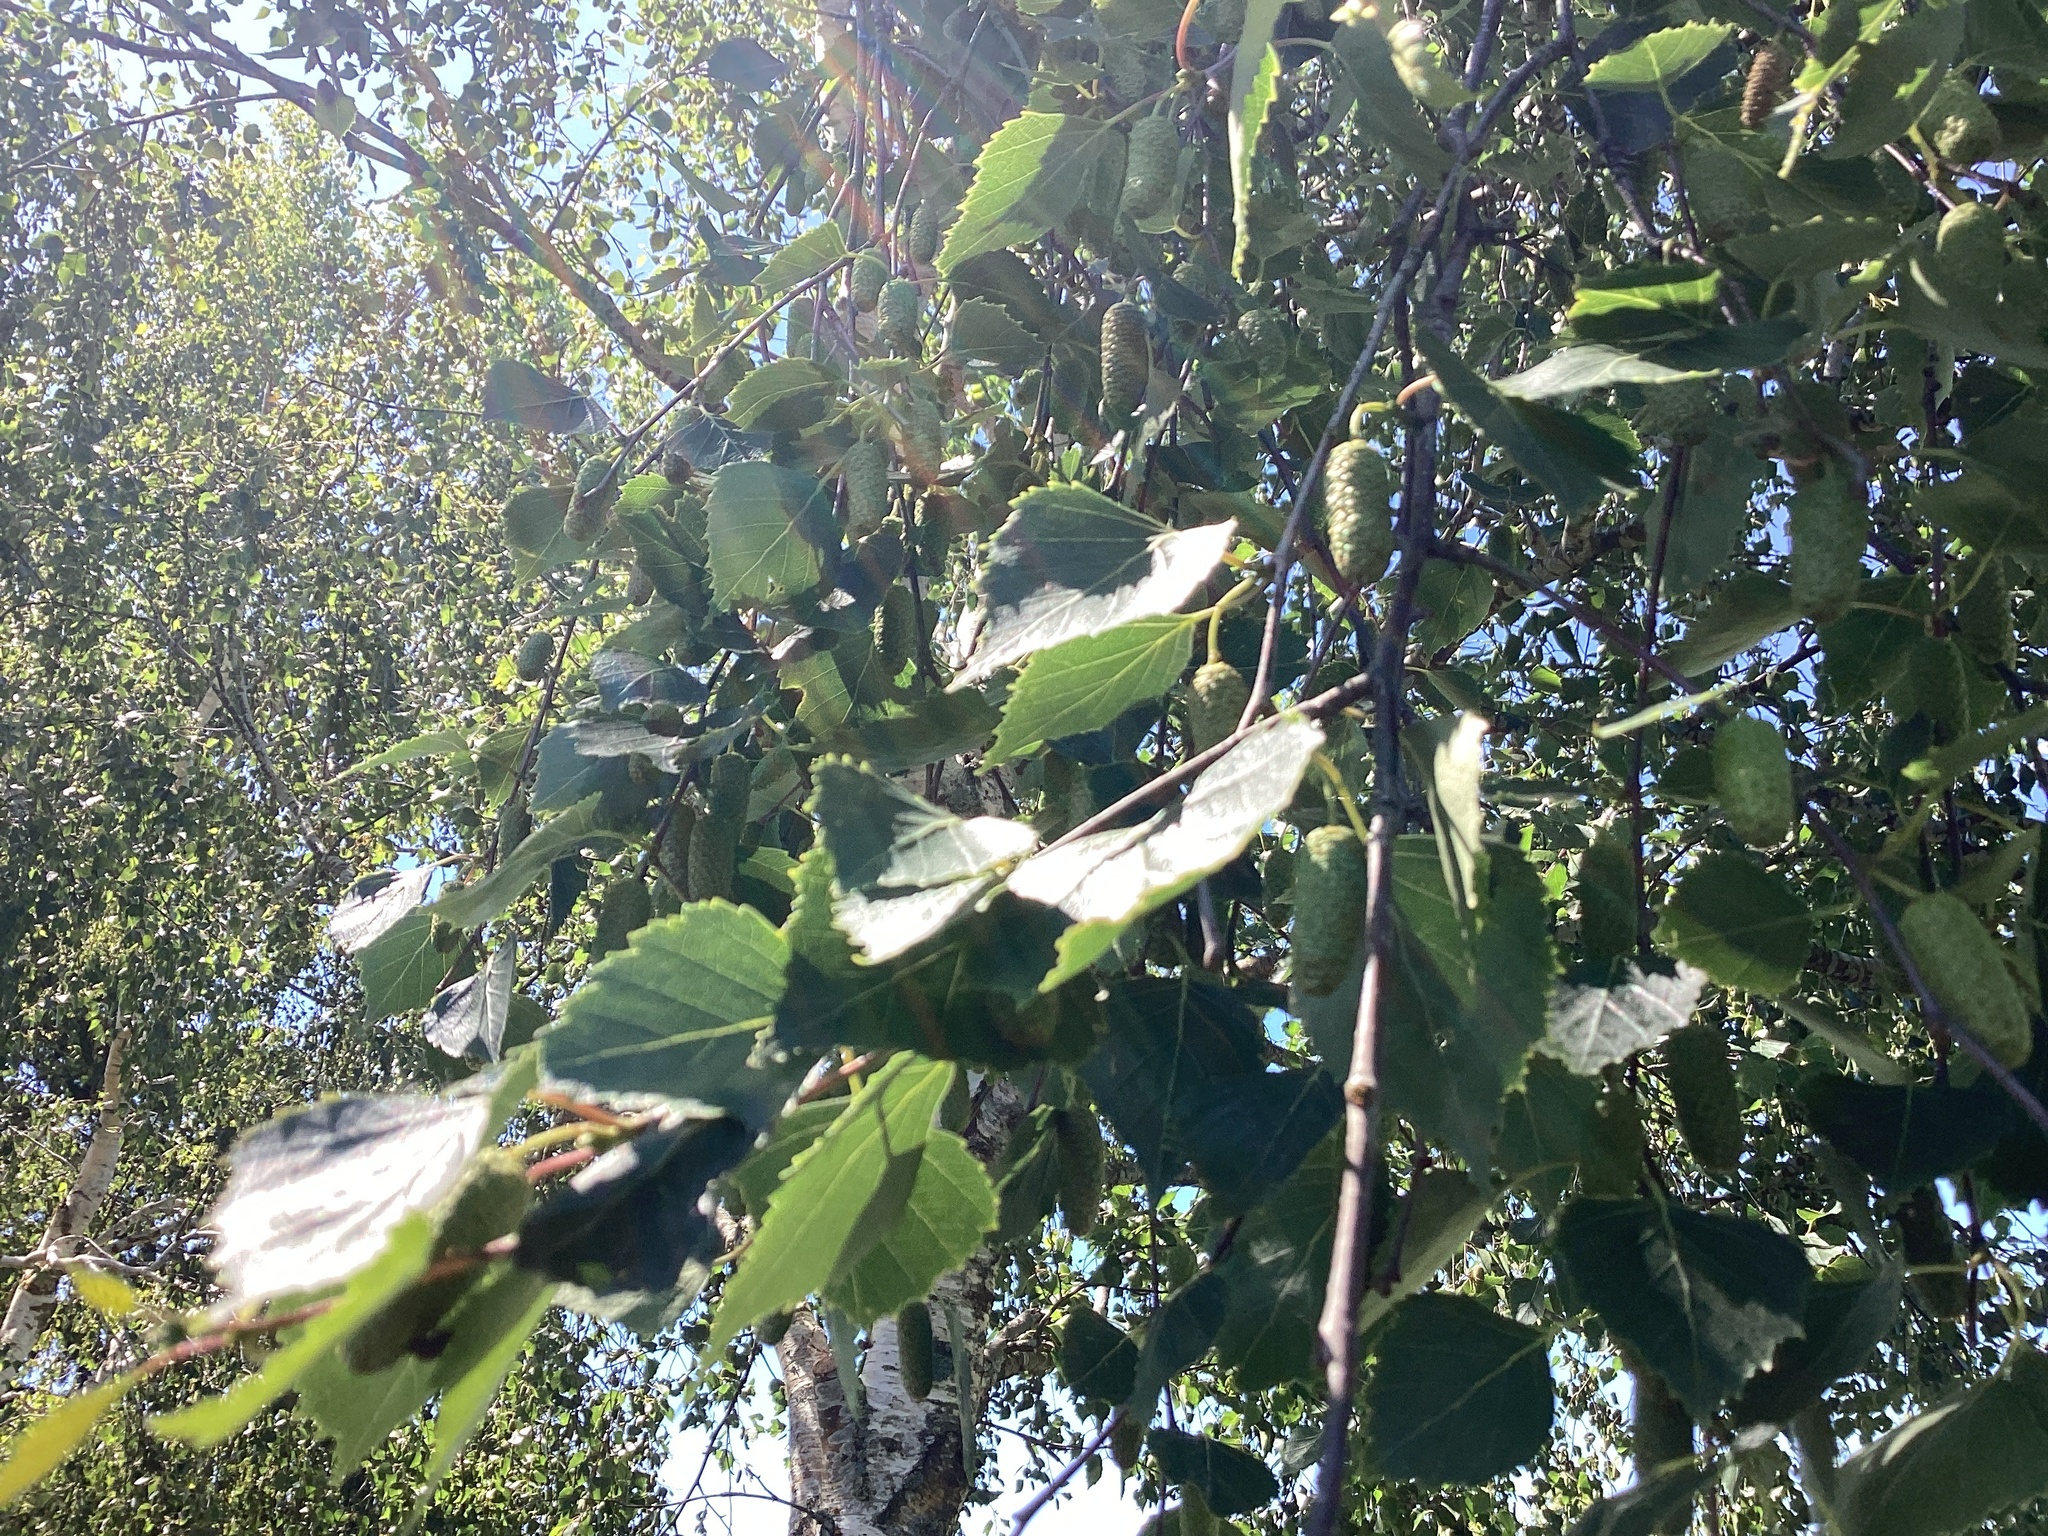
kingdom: Plantae
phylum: Tracheophyta
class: Magnoliopsida
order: Fagales
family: Betulaceae
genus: Betula
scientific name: Betula pendula
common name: Silver birch
